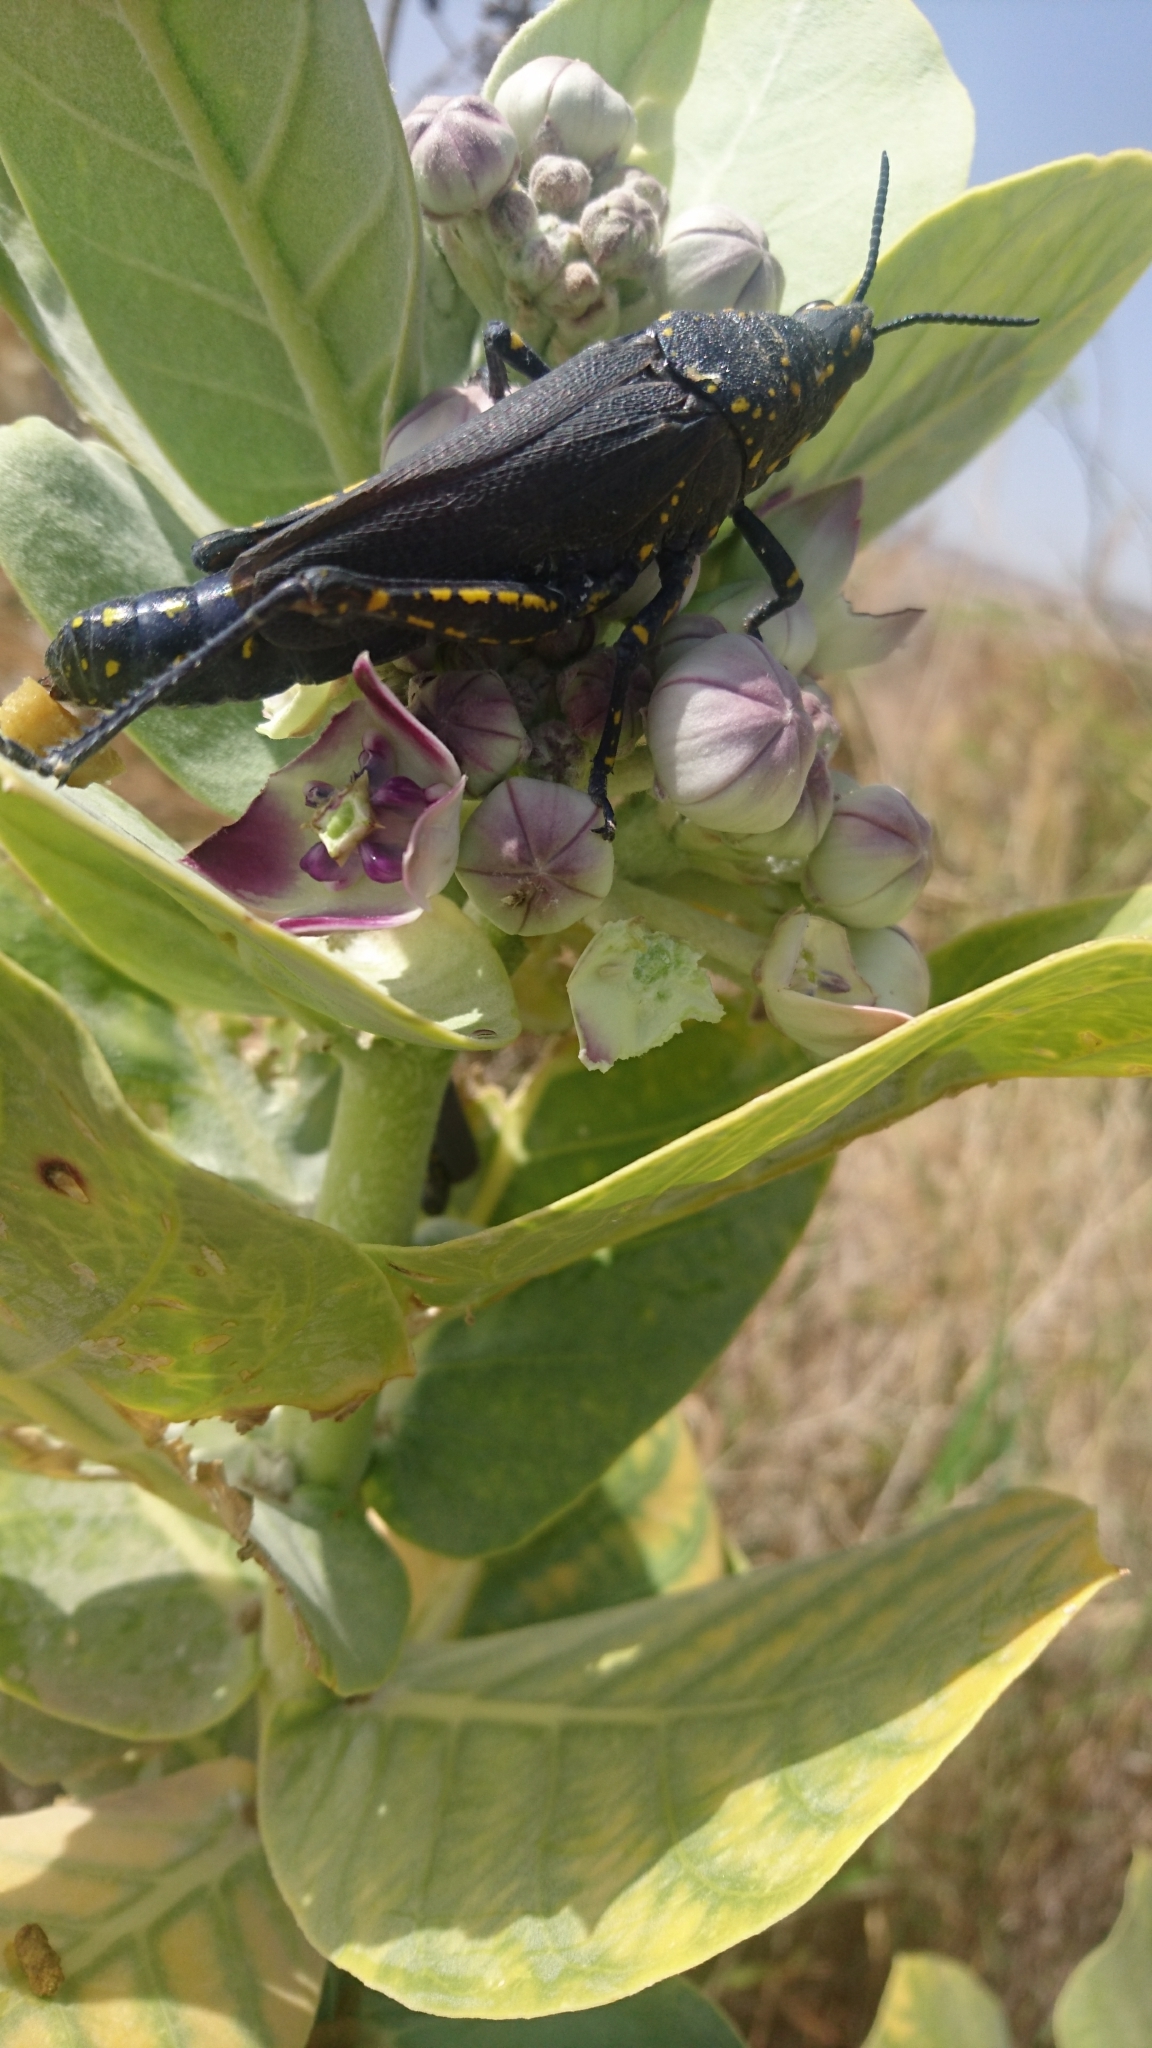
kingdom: Animalia
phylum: Arthropoda
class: Insecta
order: Orthoptera
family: Pyrgomorphidae
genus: Poekilocerus
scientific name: Poekilocerus bufonius
